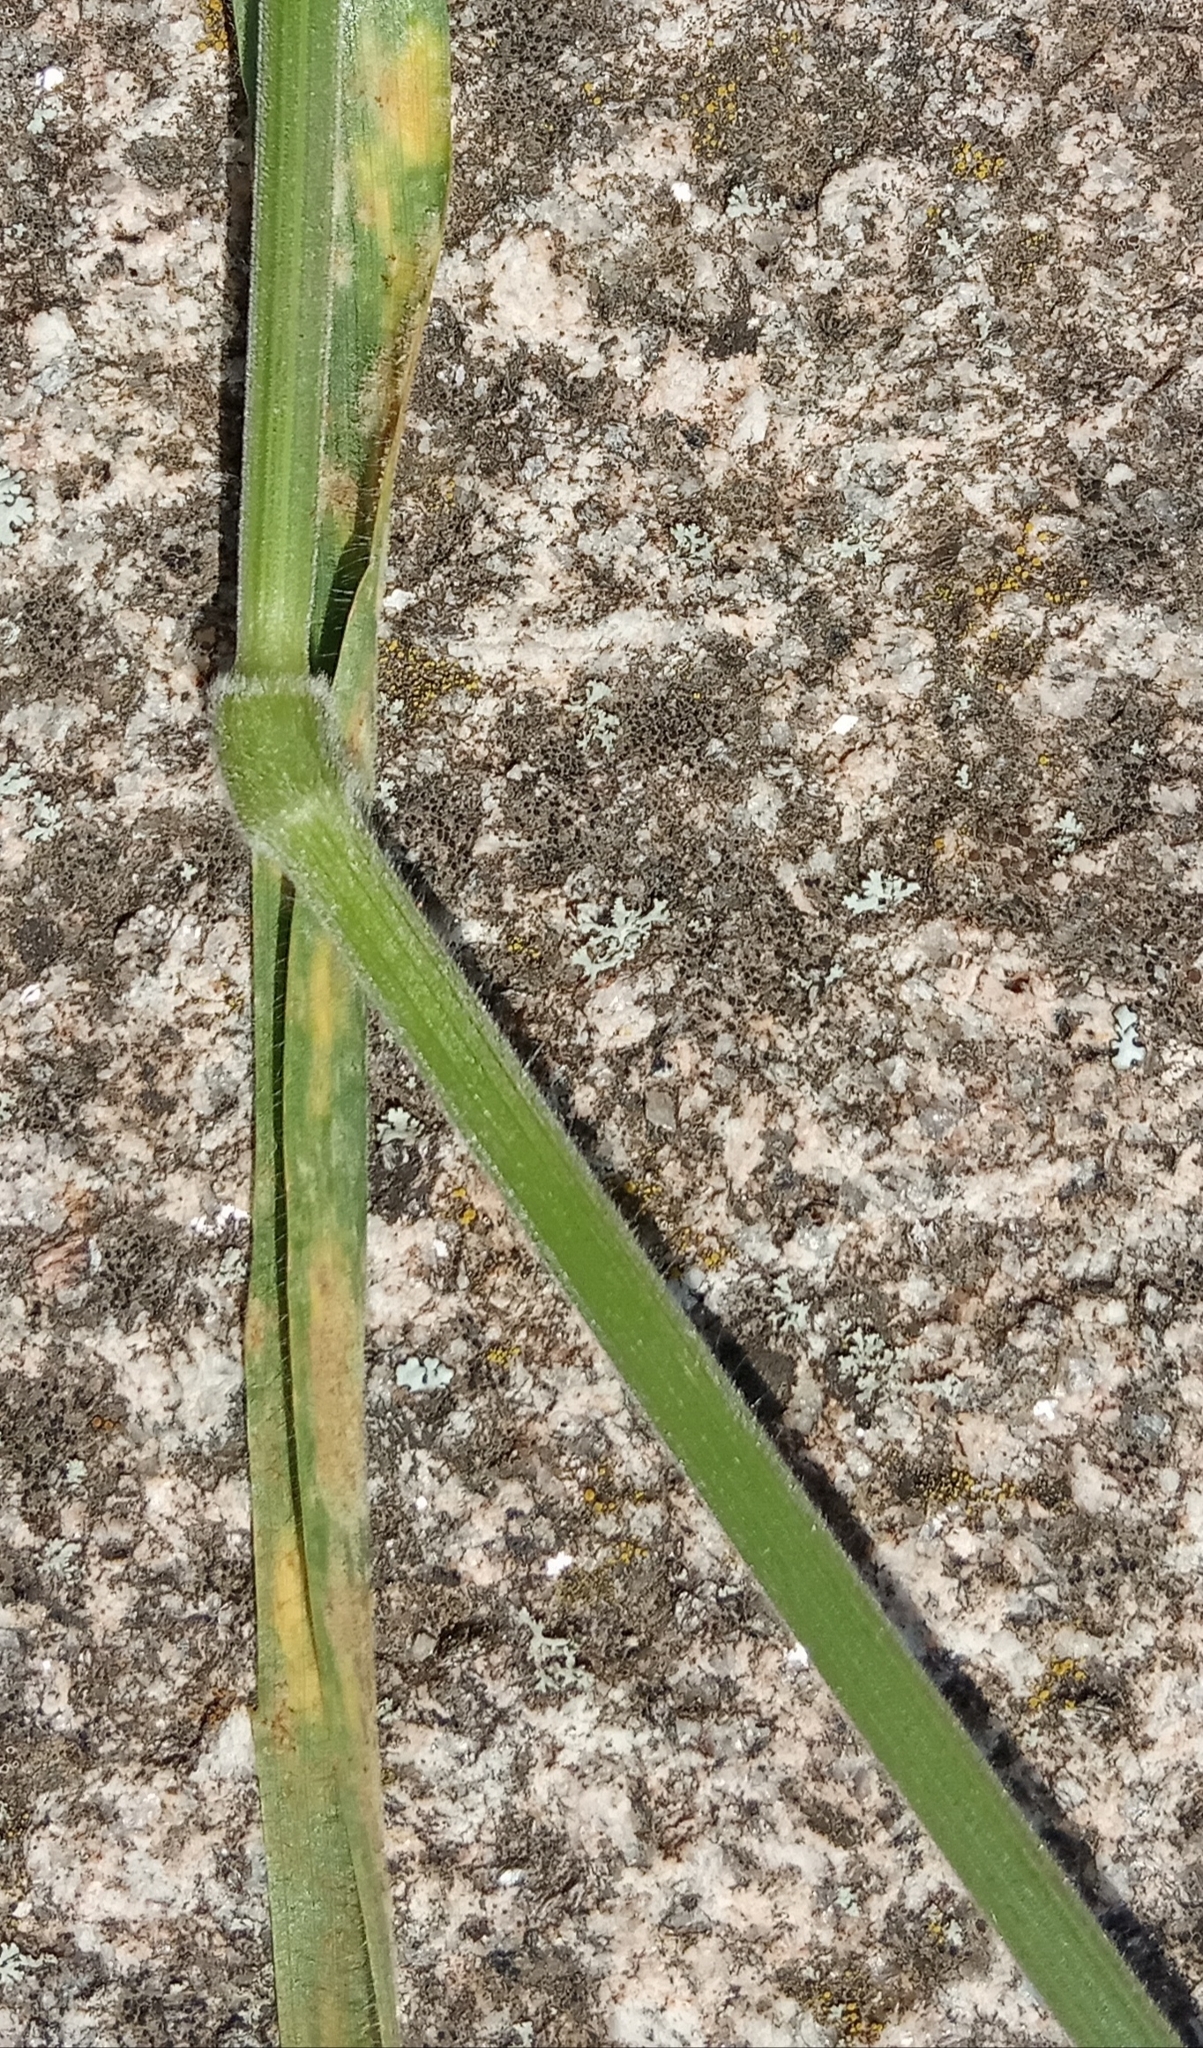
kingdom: Plantae
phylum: Tracheophyta
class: Liliopsida
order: Poales
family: Poaceae
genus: Bromus
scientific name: Bromus hordeaceus
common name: Soft brome
